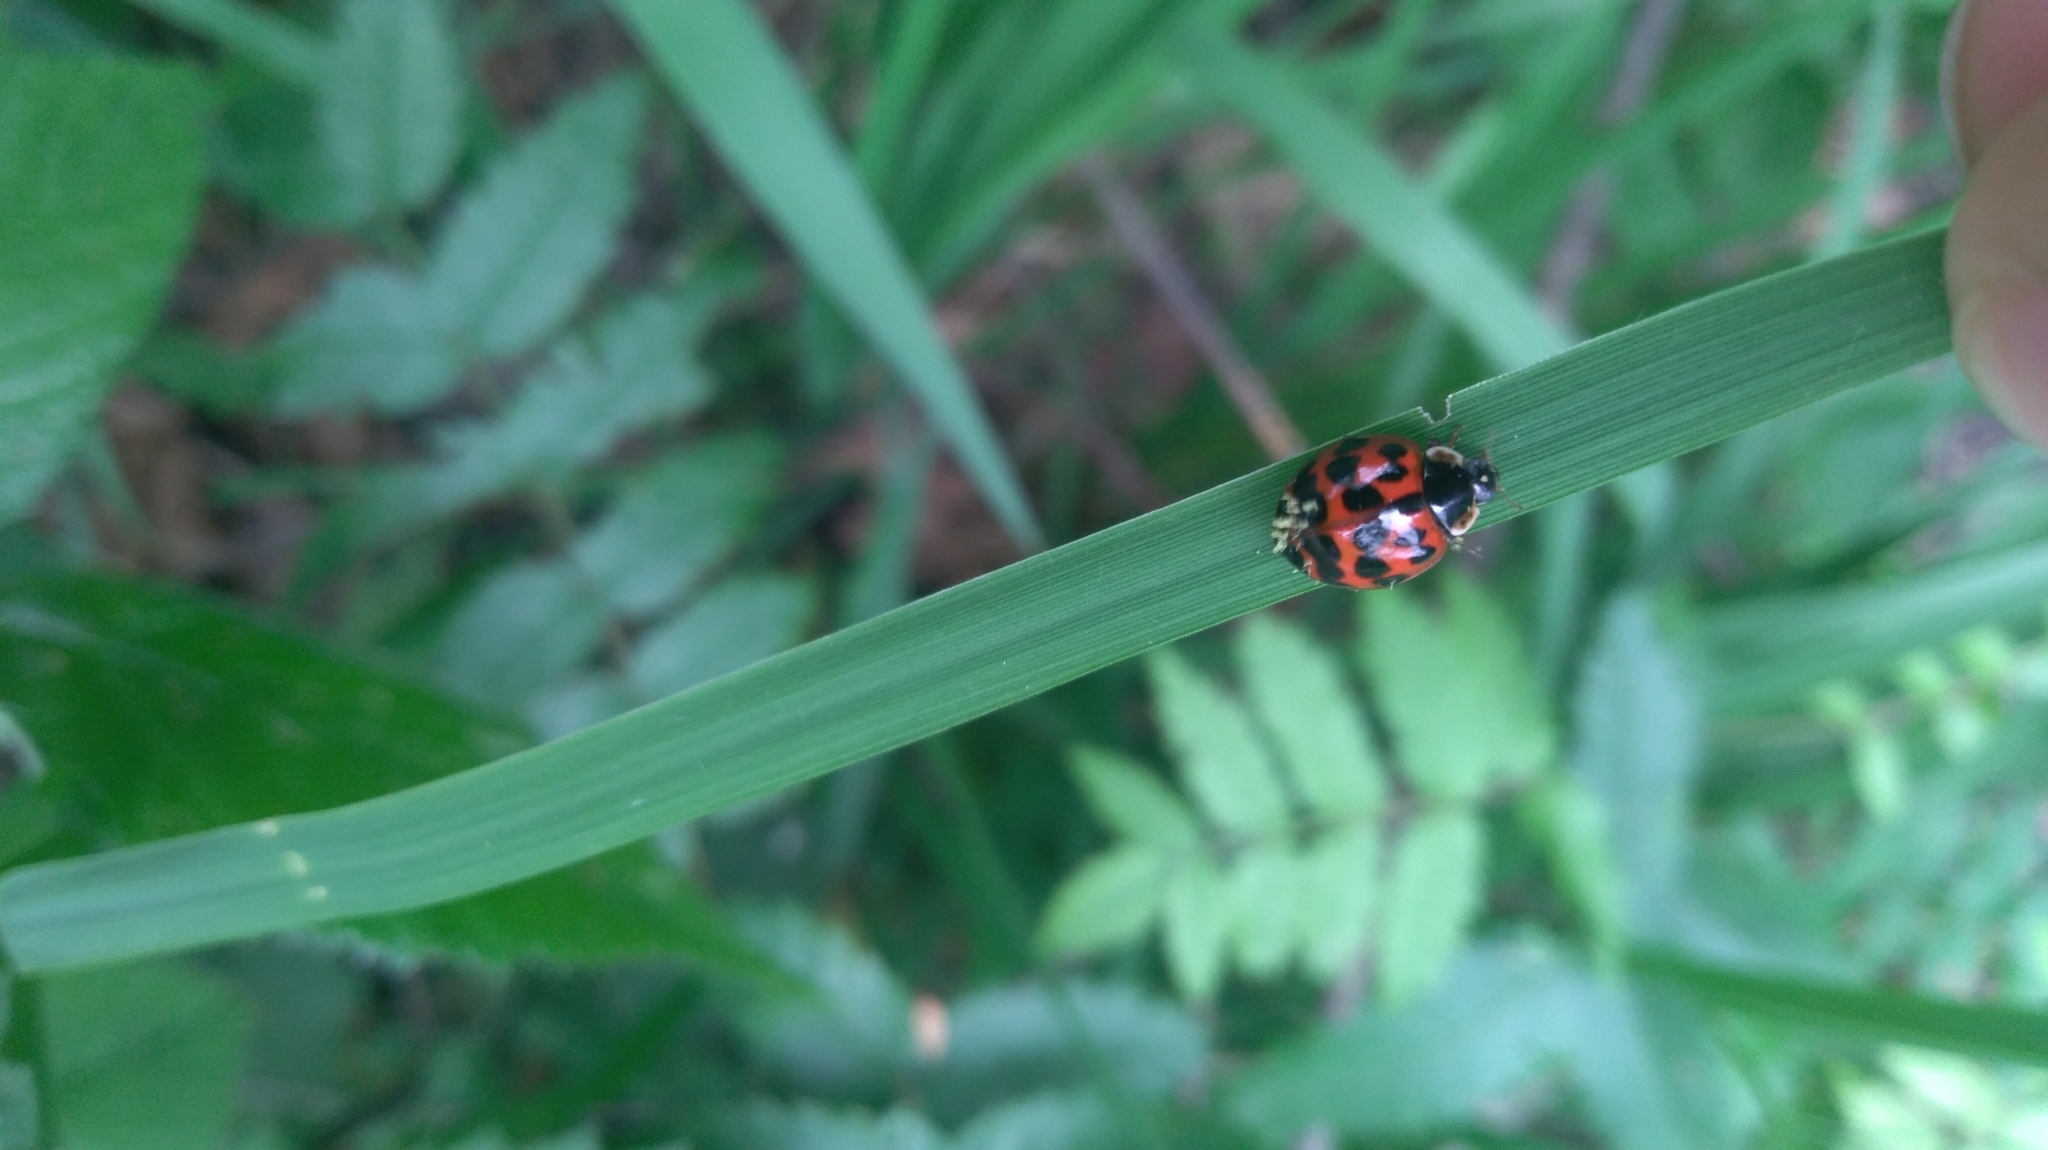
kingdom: Animalia
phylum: Arthropoda
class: Insecta
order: Coleoptera
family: Coccinellidae
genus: Harmonia
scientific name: Harmonia axyridis
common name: Harlequin ladybird
